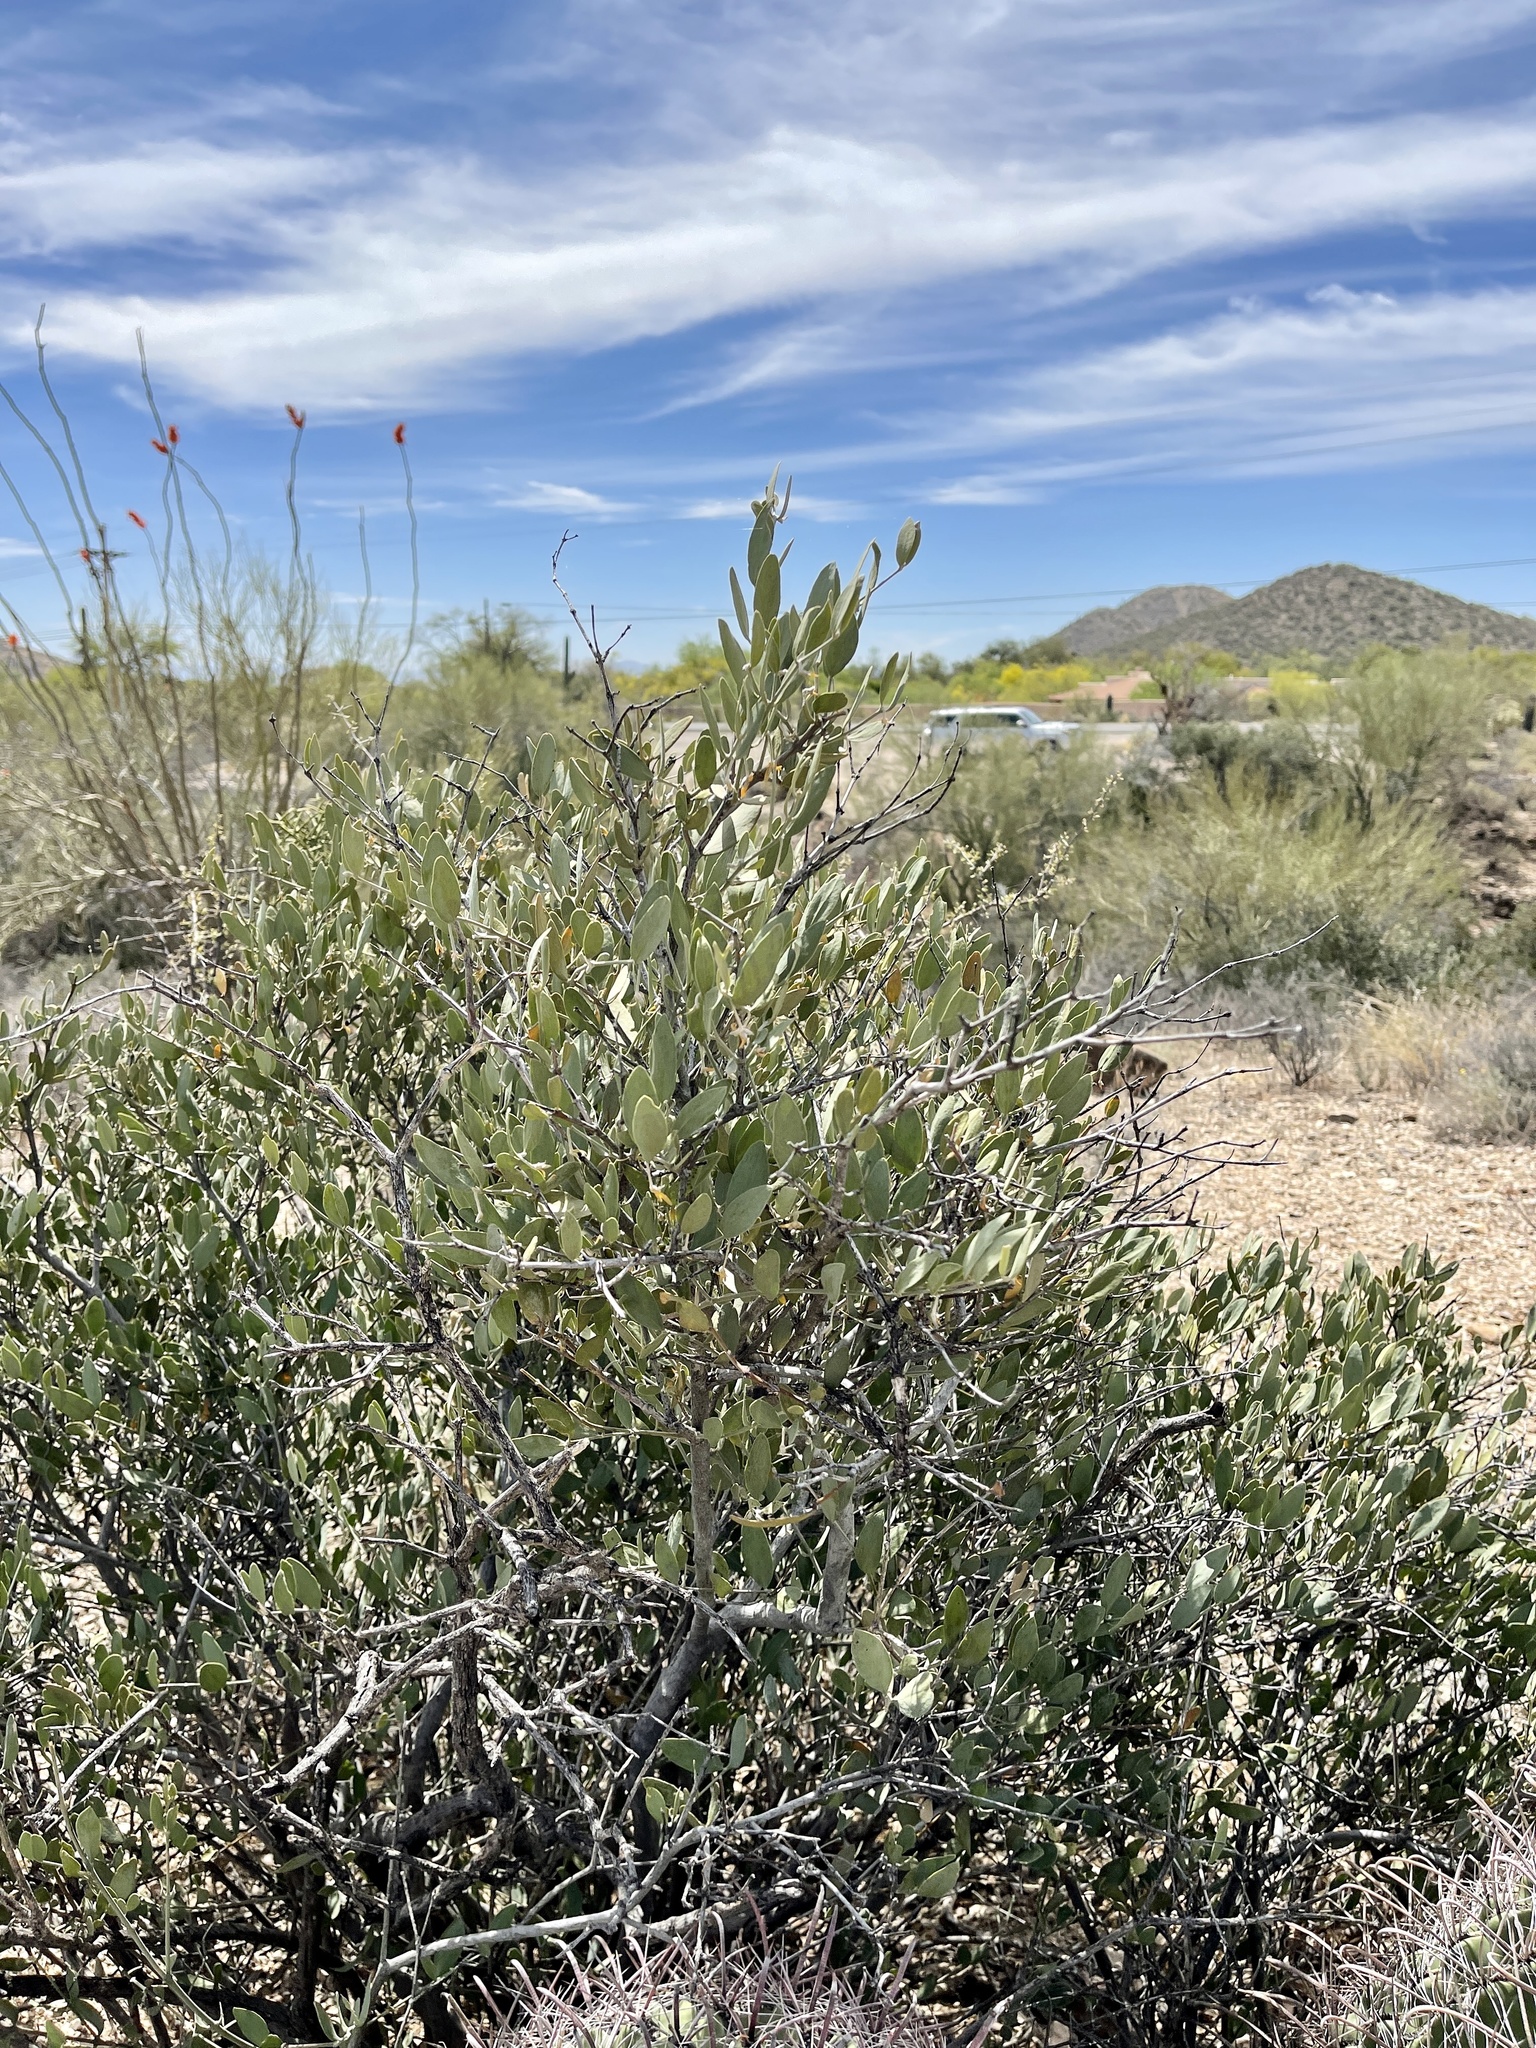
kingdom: Plantae
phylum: Tracheophyta
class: Magnoliopsida
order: Caryophyllales
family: Simmondsiaceae
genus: Simmondsia
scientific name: Simmondsia chinensis
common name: Jojoba
